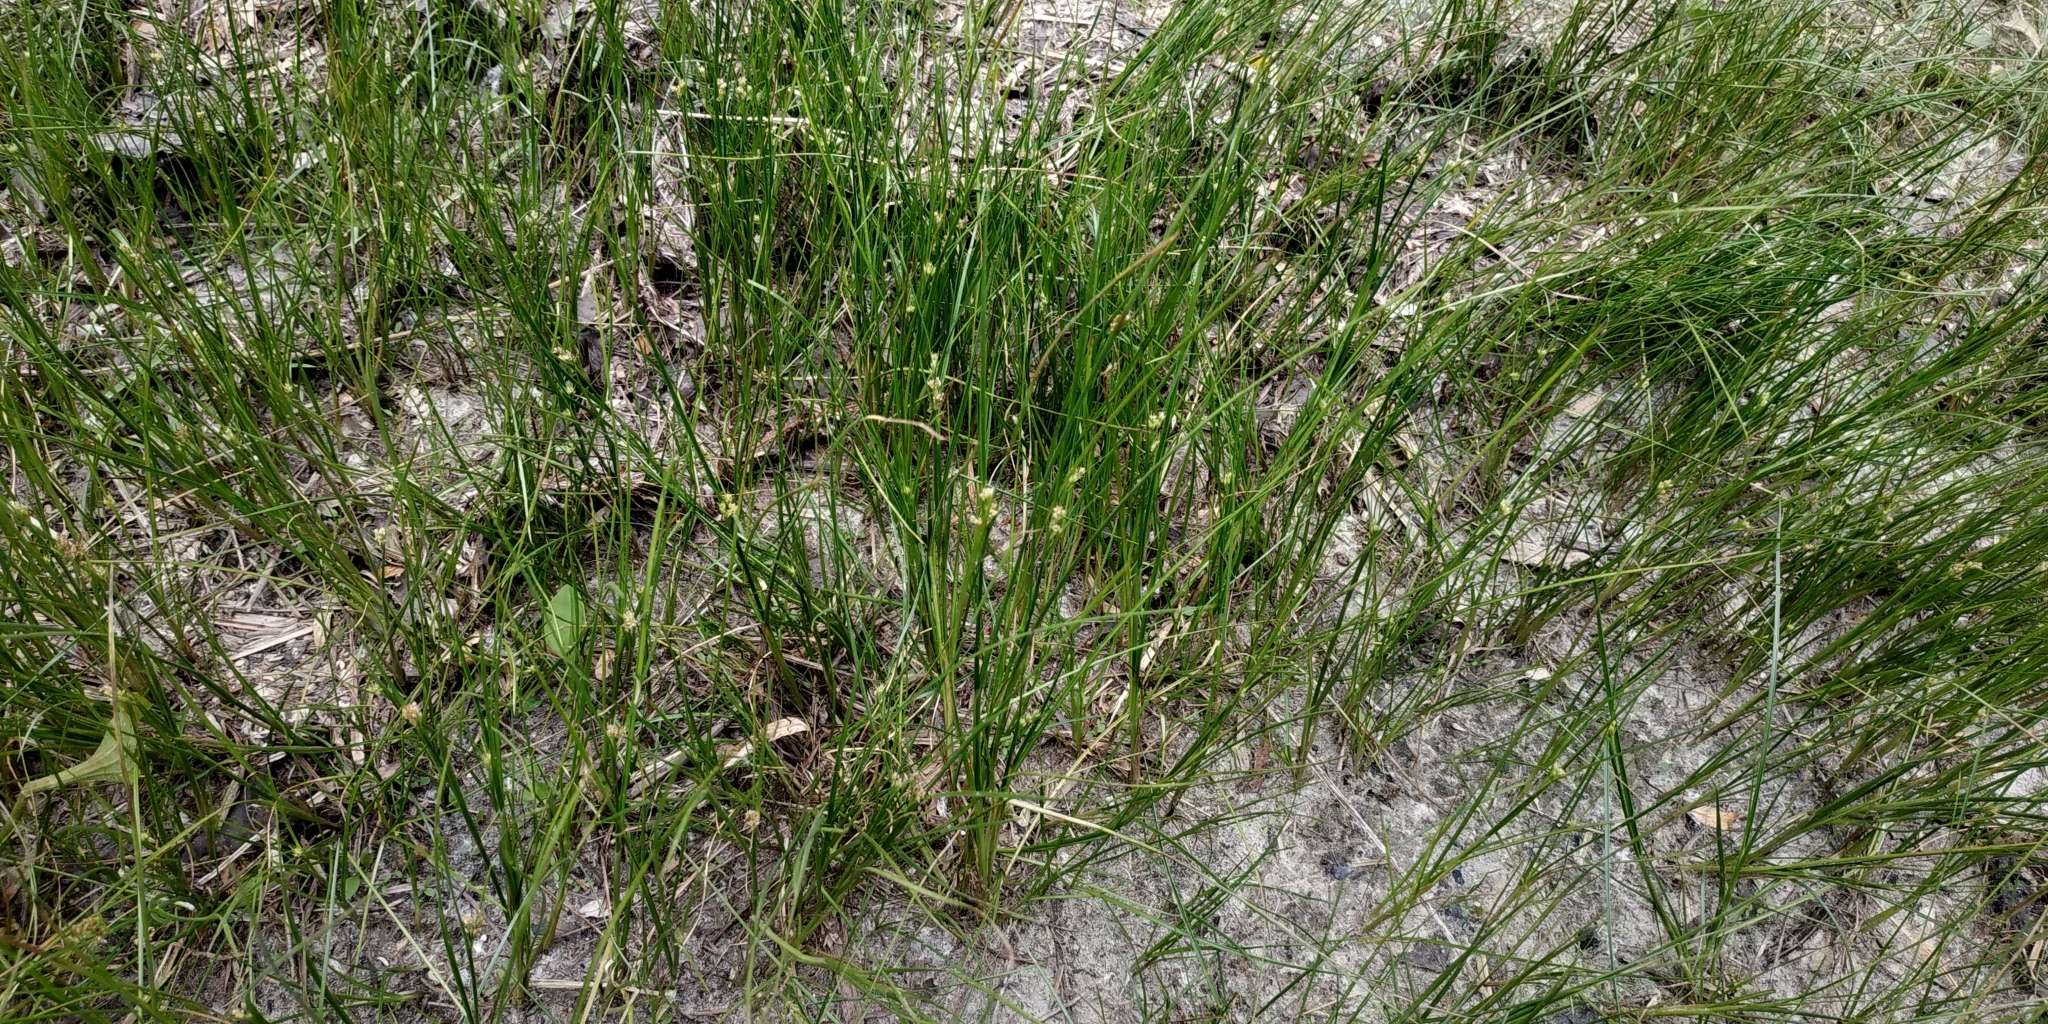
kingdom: Plantae
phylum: Tracheophyta
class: Liliopsida
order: Poales
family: Juncaceae
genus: Juncus
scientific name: Juncus compressus
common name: Round-fruited rush
